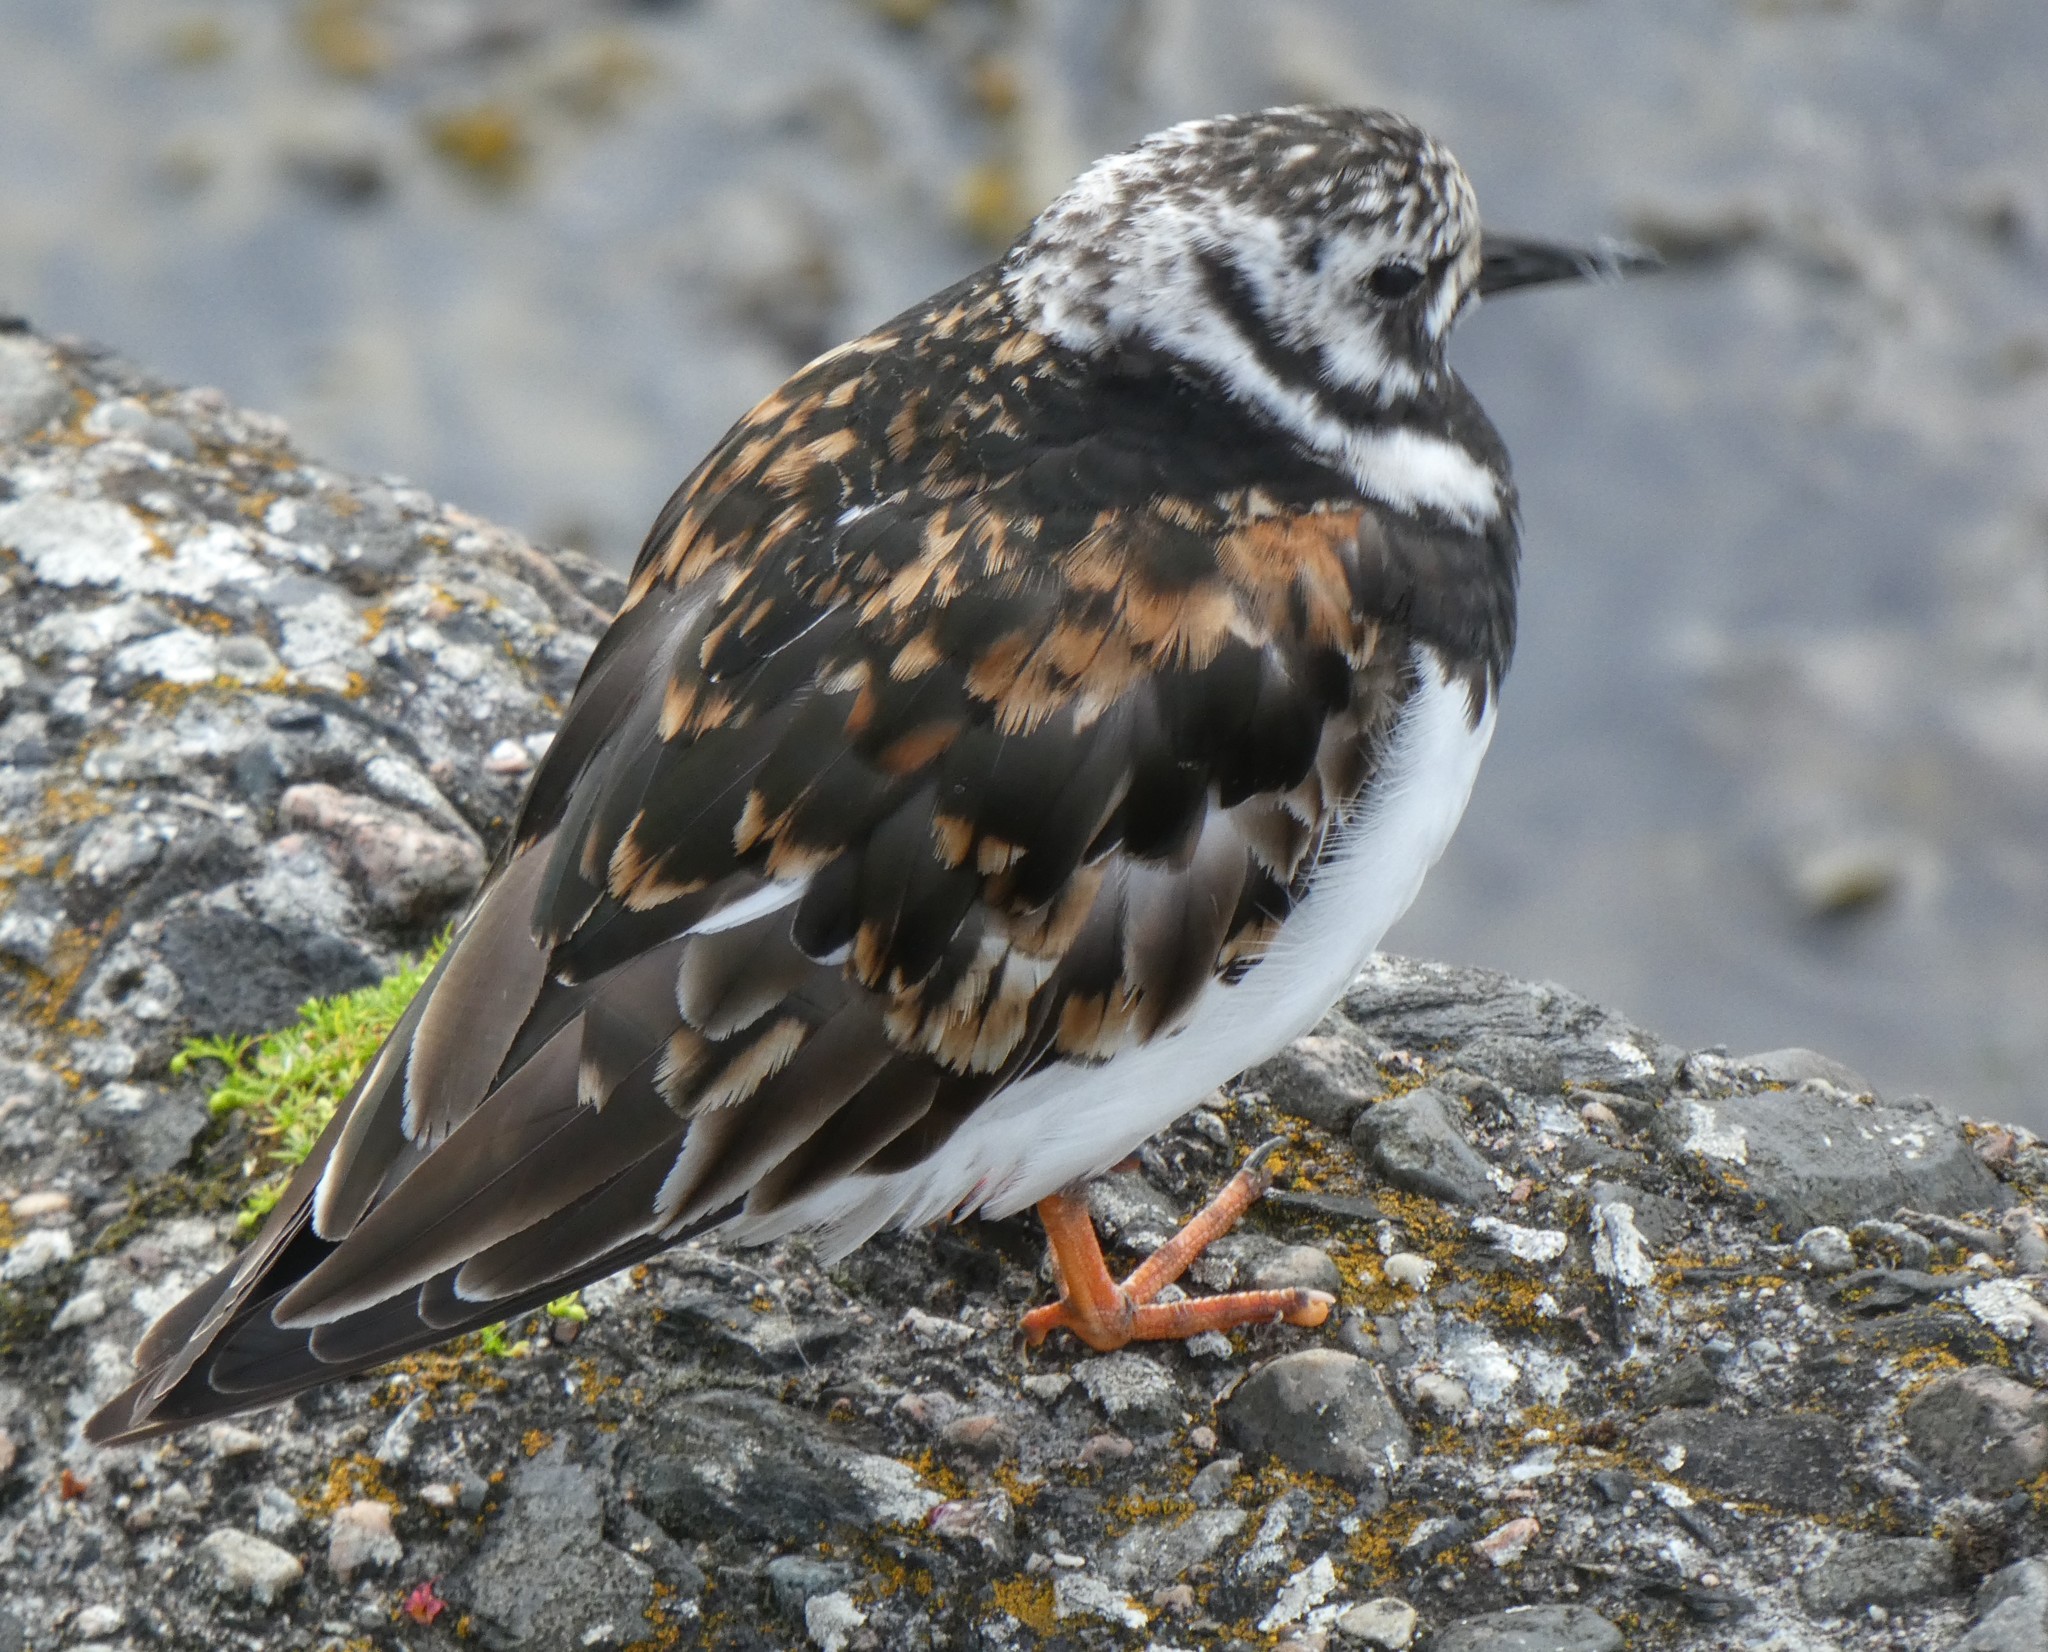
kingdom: Animalia
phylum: Chordata
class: Aves
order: Charadriiformes
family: Scolopacidae
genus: Arenaria
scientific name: Arenaria interpres
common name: Ruddy turnstone
